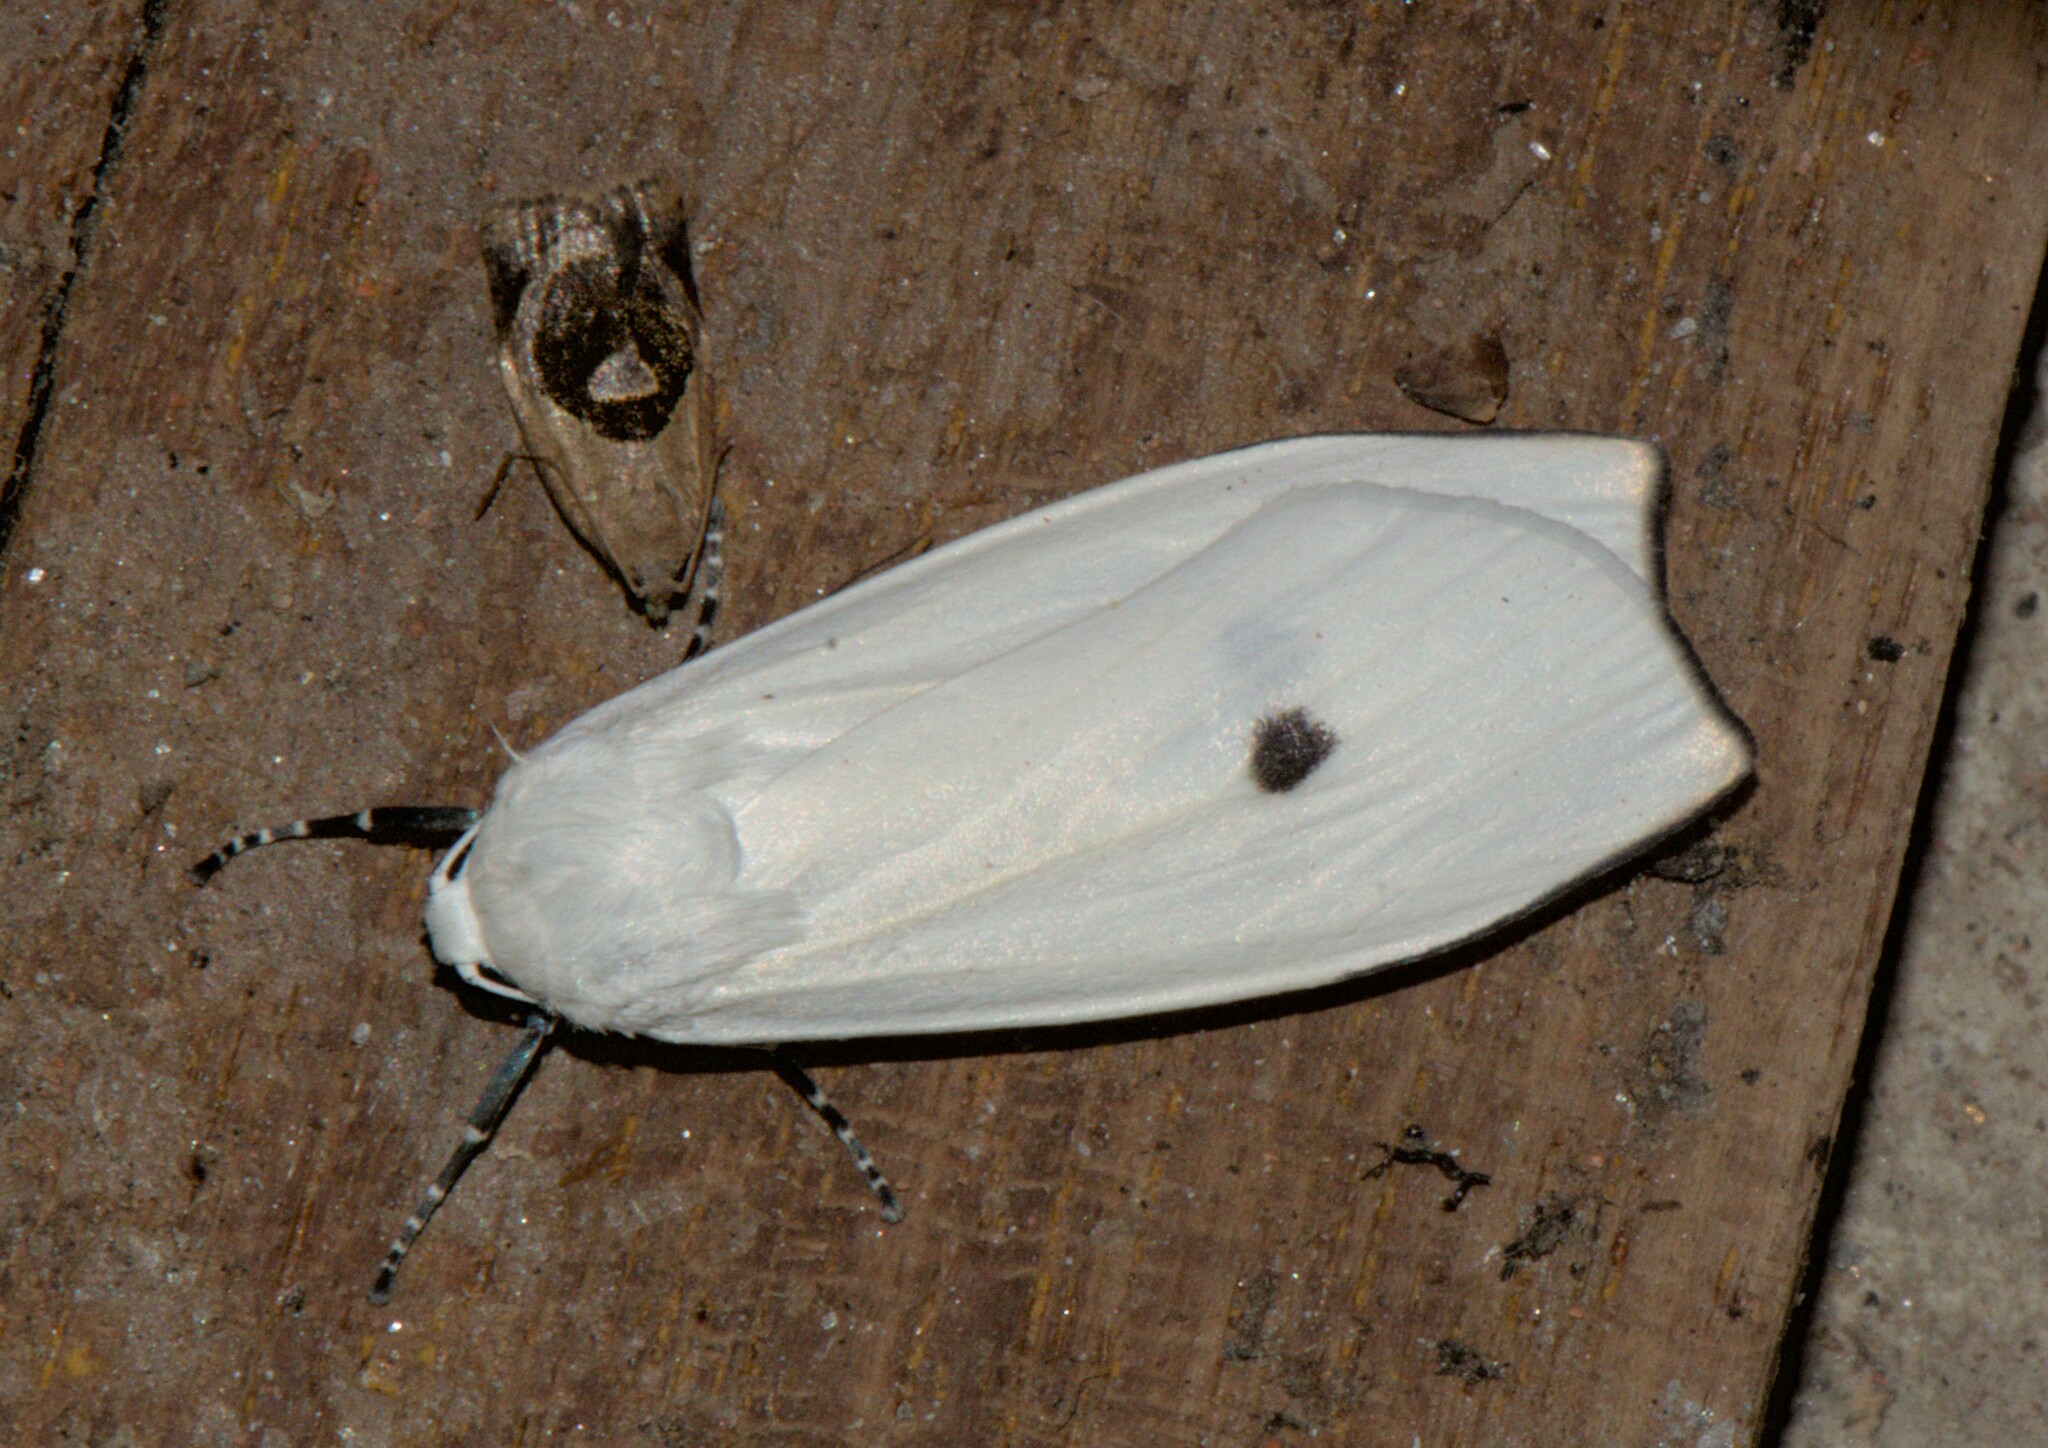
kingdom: Animalia
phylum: Arthropoda
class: Insecta
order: Lepidoptera
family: Erebidae
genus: Vamuna
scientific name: Vamuna remelana
